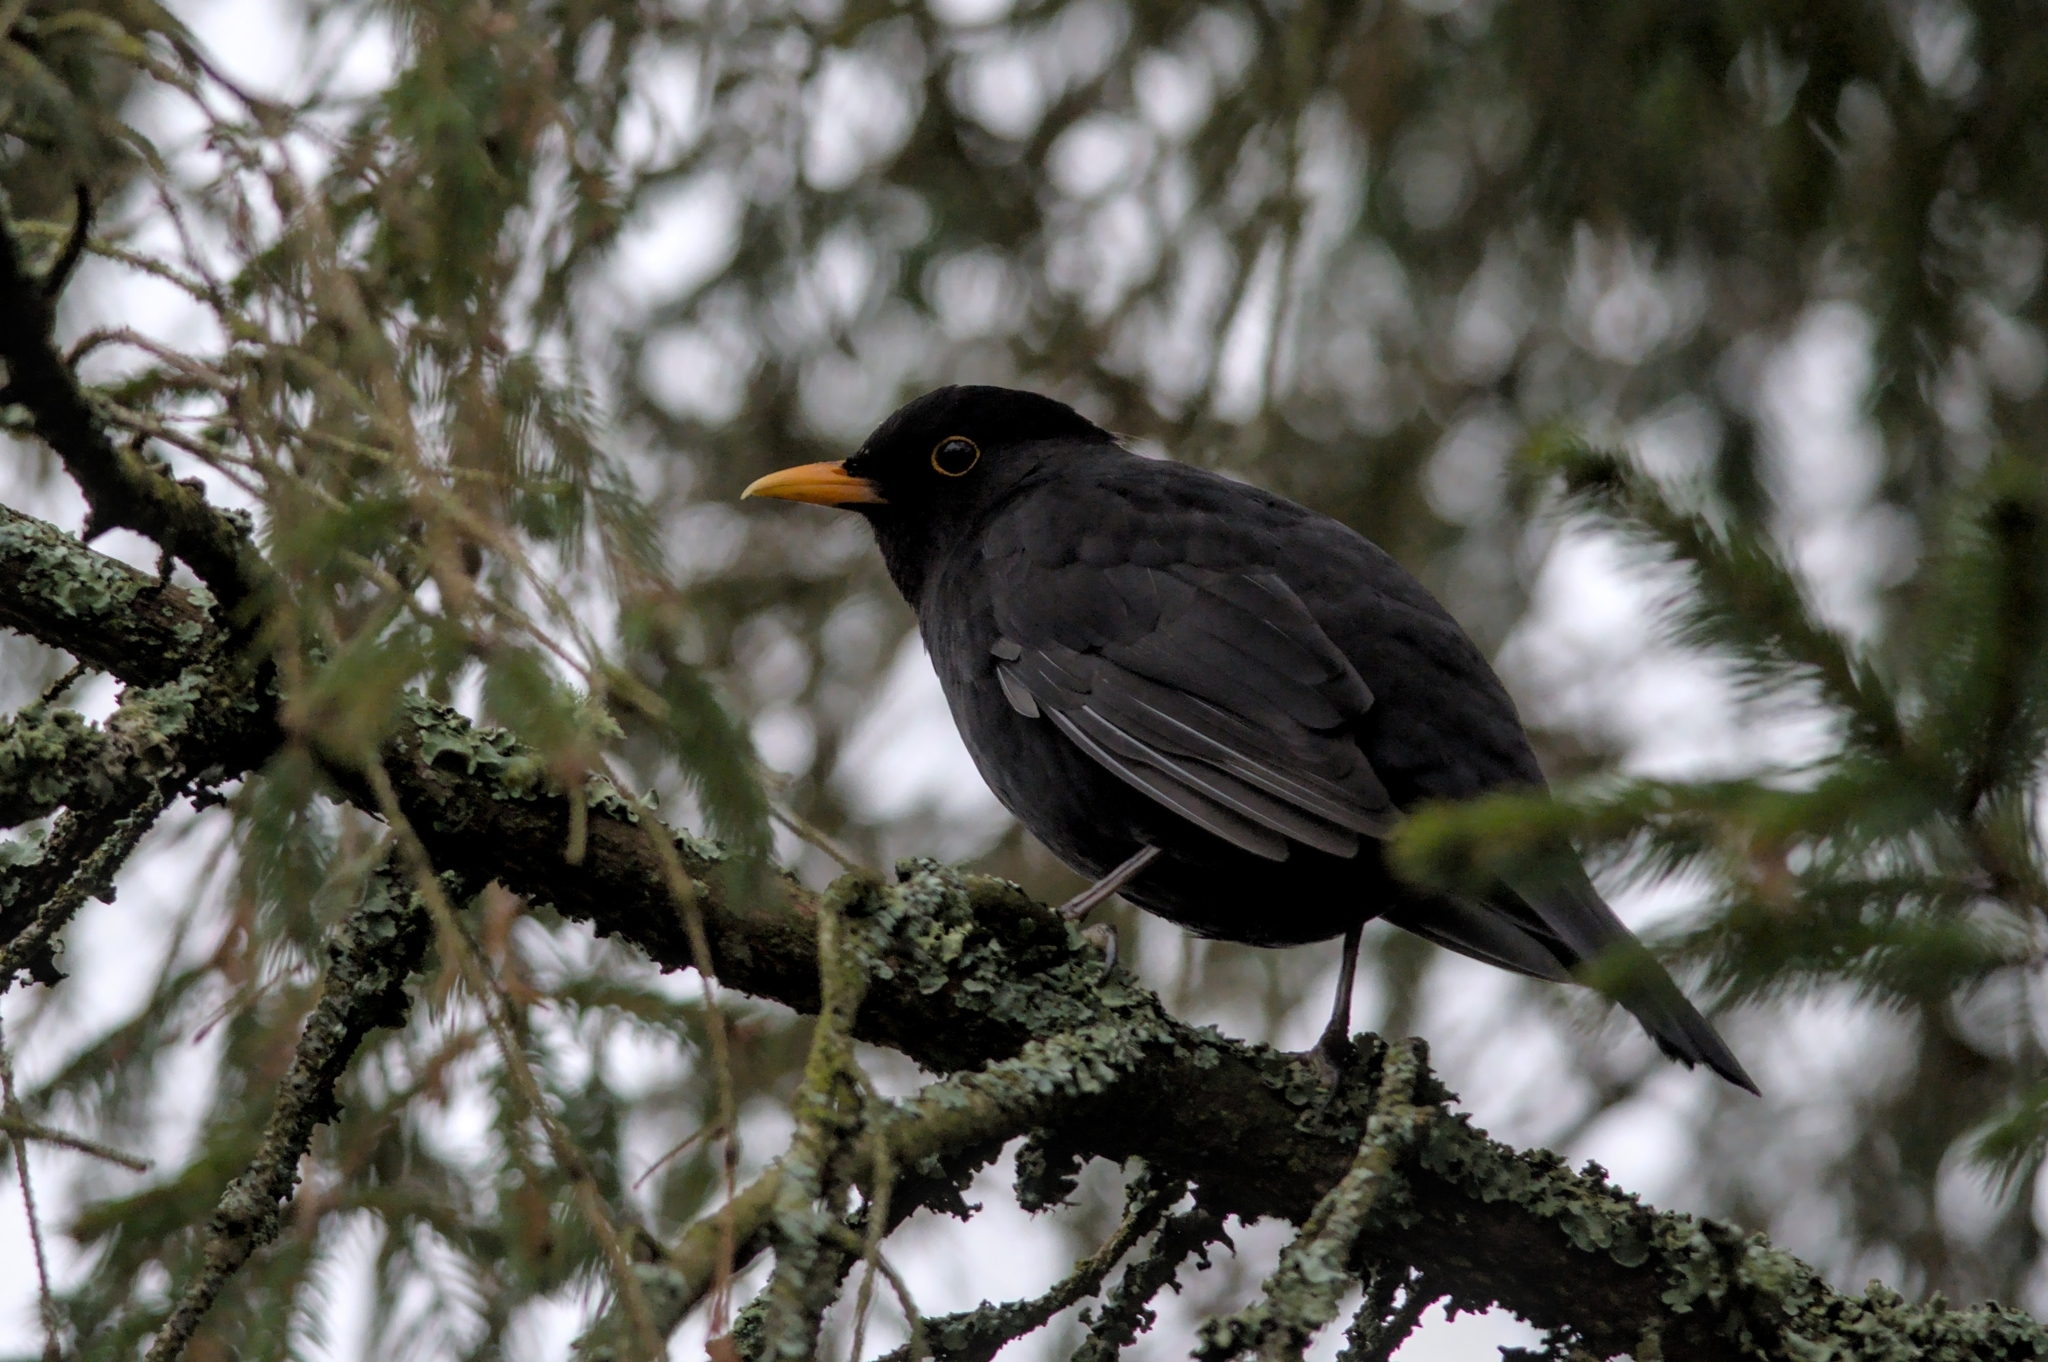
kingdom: Animalia
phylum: Chordata
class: Aves
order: Passeriformes
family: Turdidae
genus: Turdus
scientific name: Turdus merula
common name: Common blackbird
